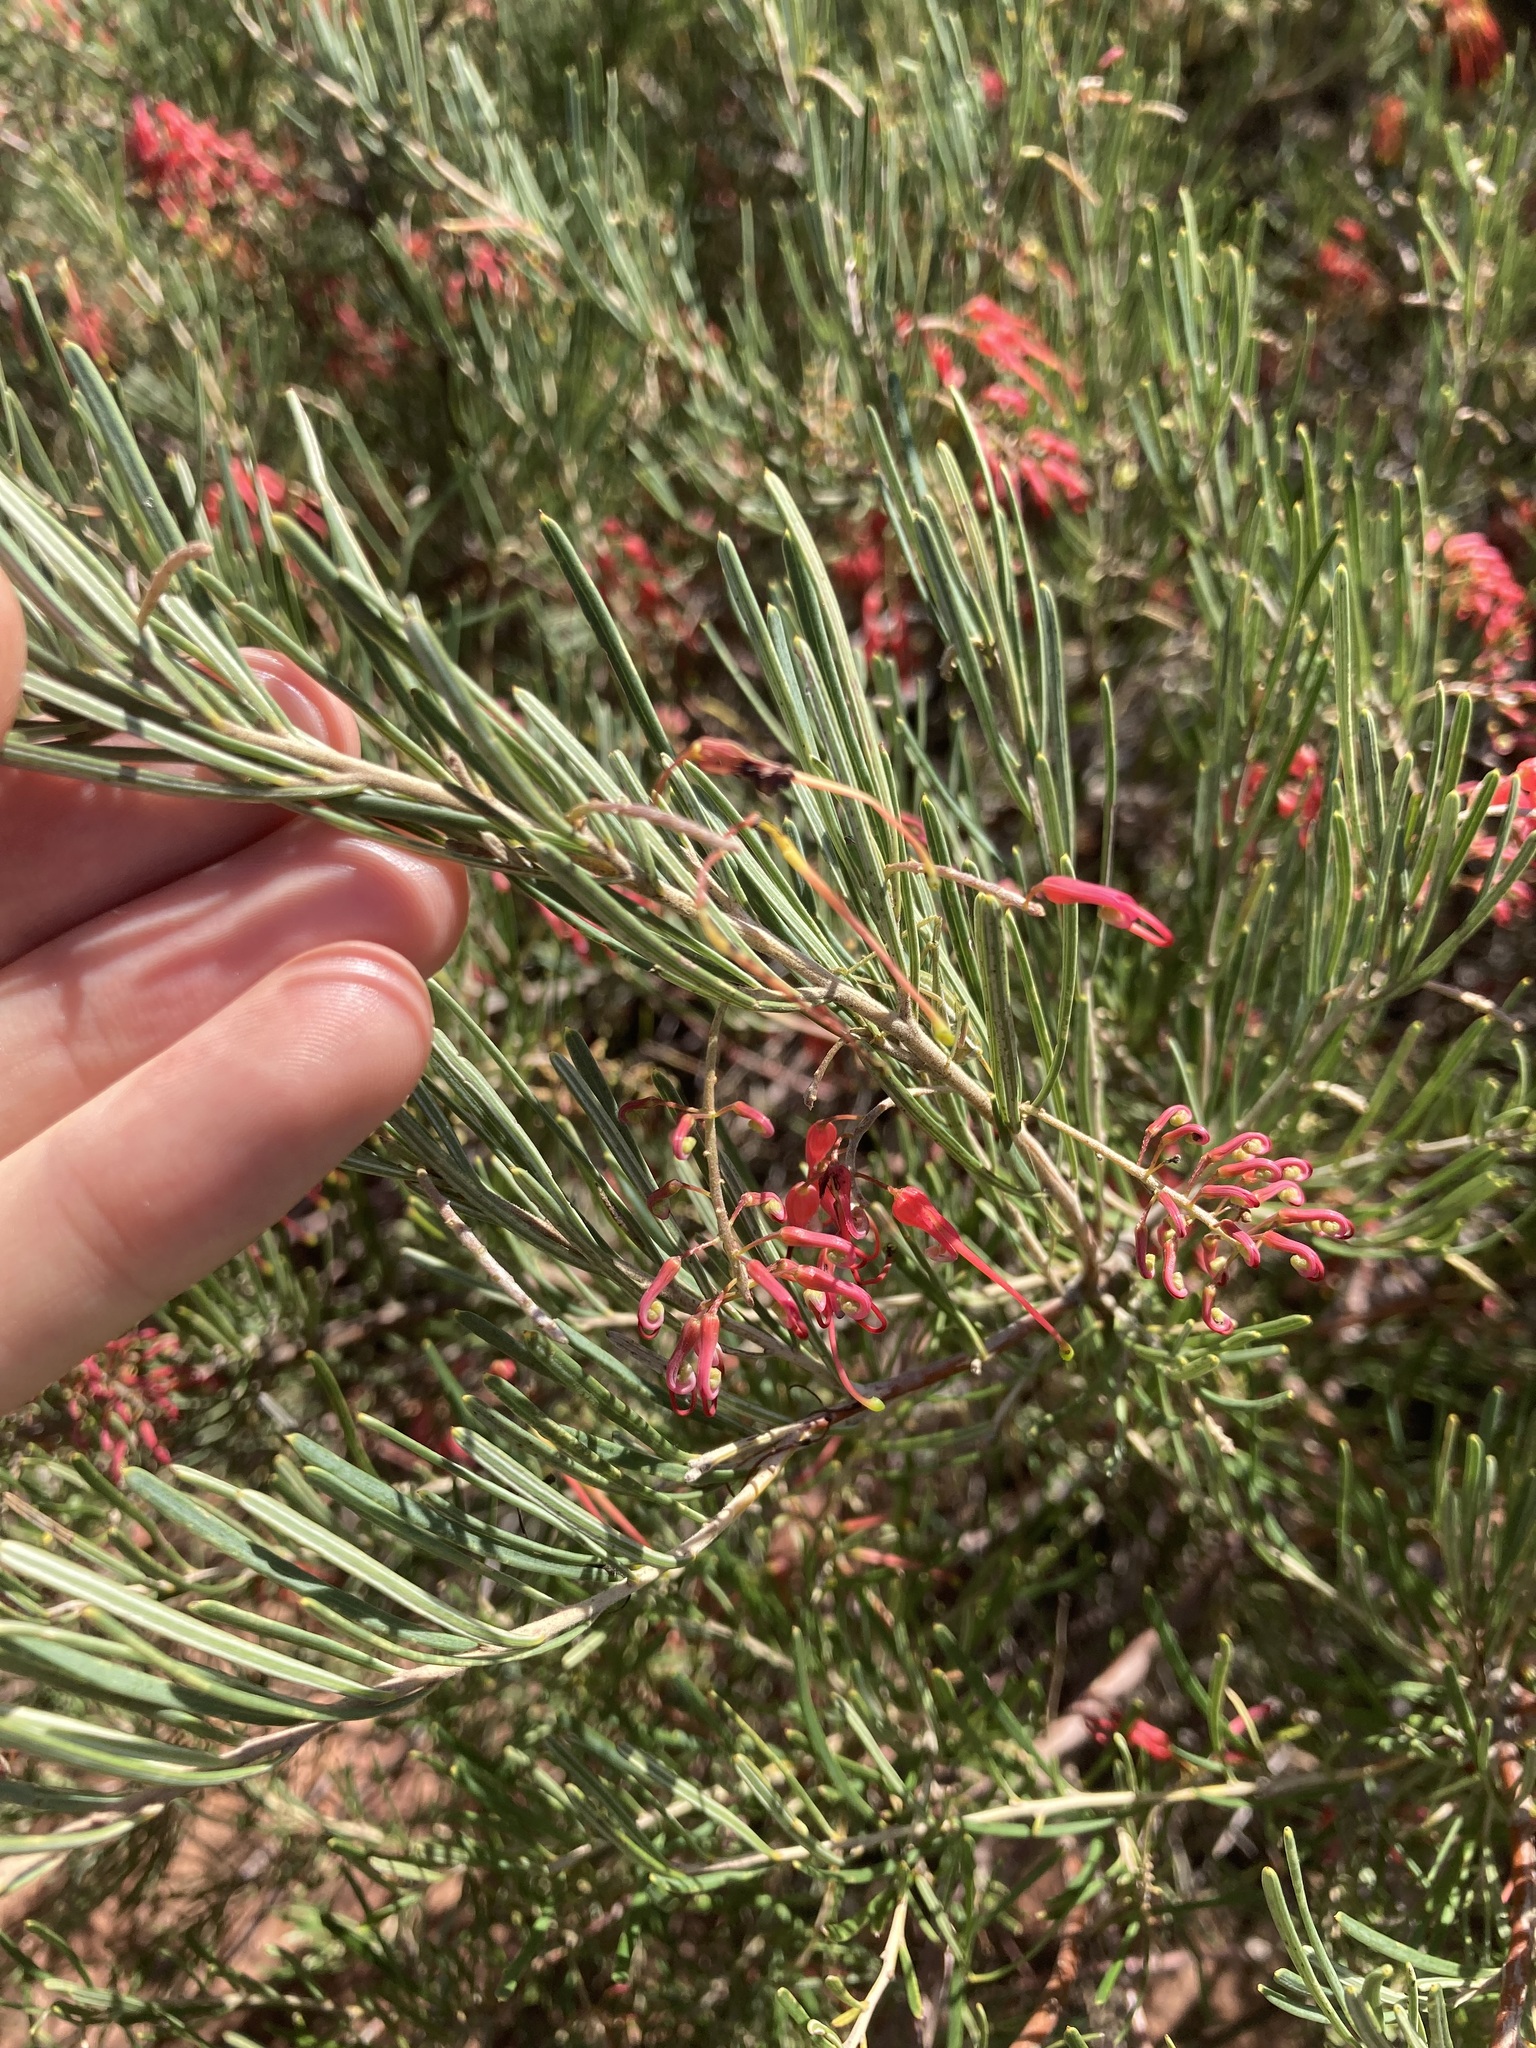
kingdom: Plantae
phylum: Tracheophyta
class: Magnoliopsida
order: Proteales
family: Proteaceae
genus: Grevillea
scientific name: Grevillea pinaster
